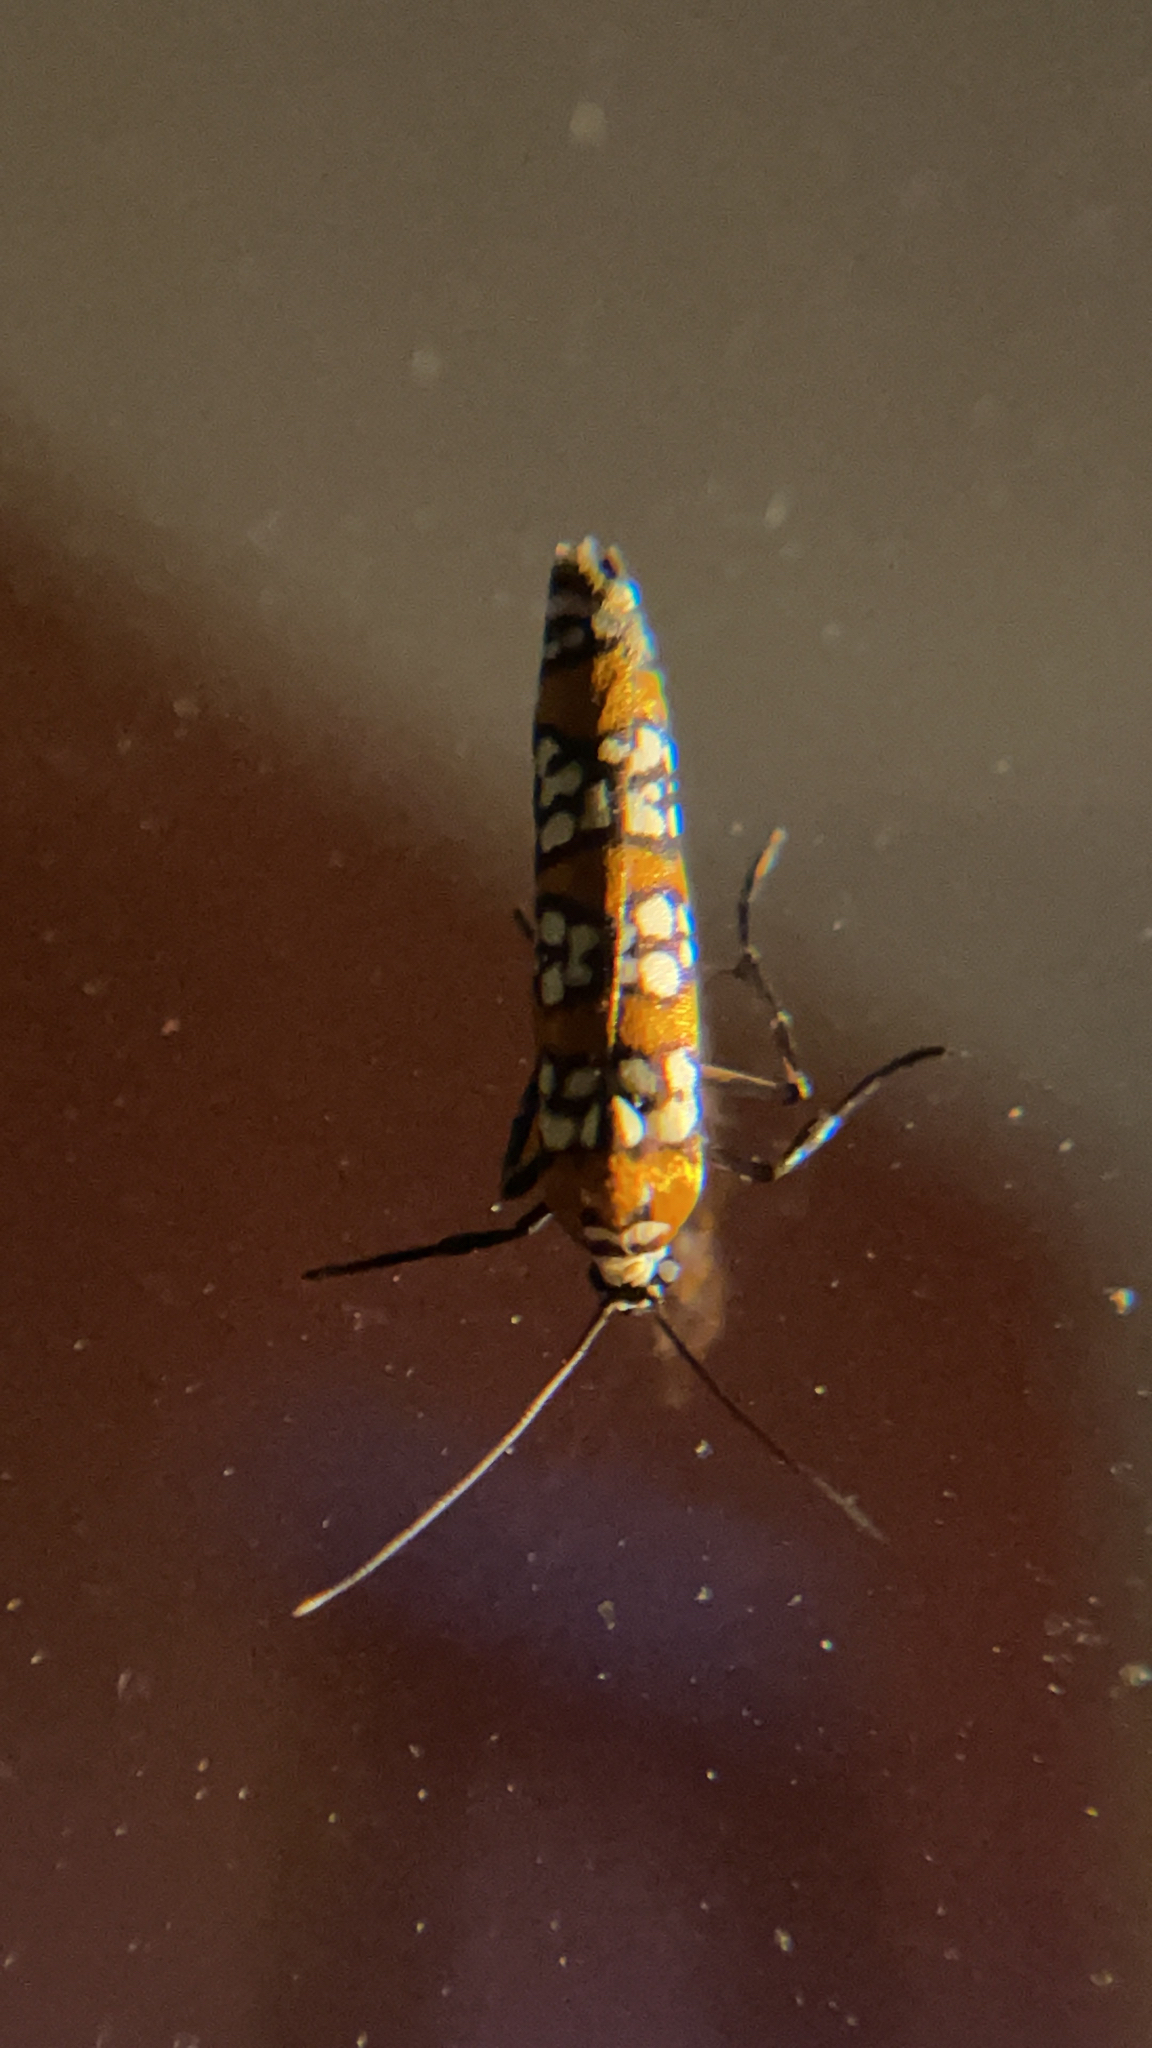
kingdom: Animalia
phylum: Arthropoda
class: Insecta
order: Lepidoptera
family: Attevidae
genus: Atteva
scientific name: Atteva punctella
